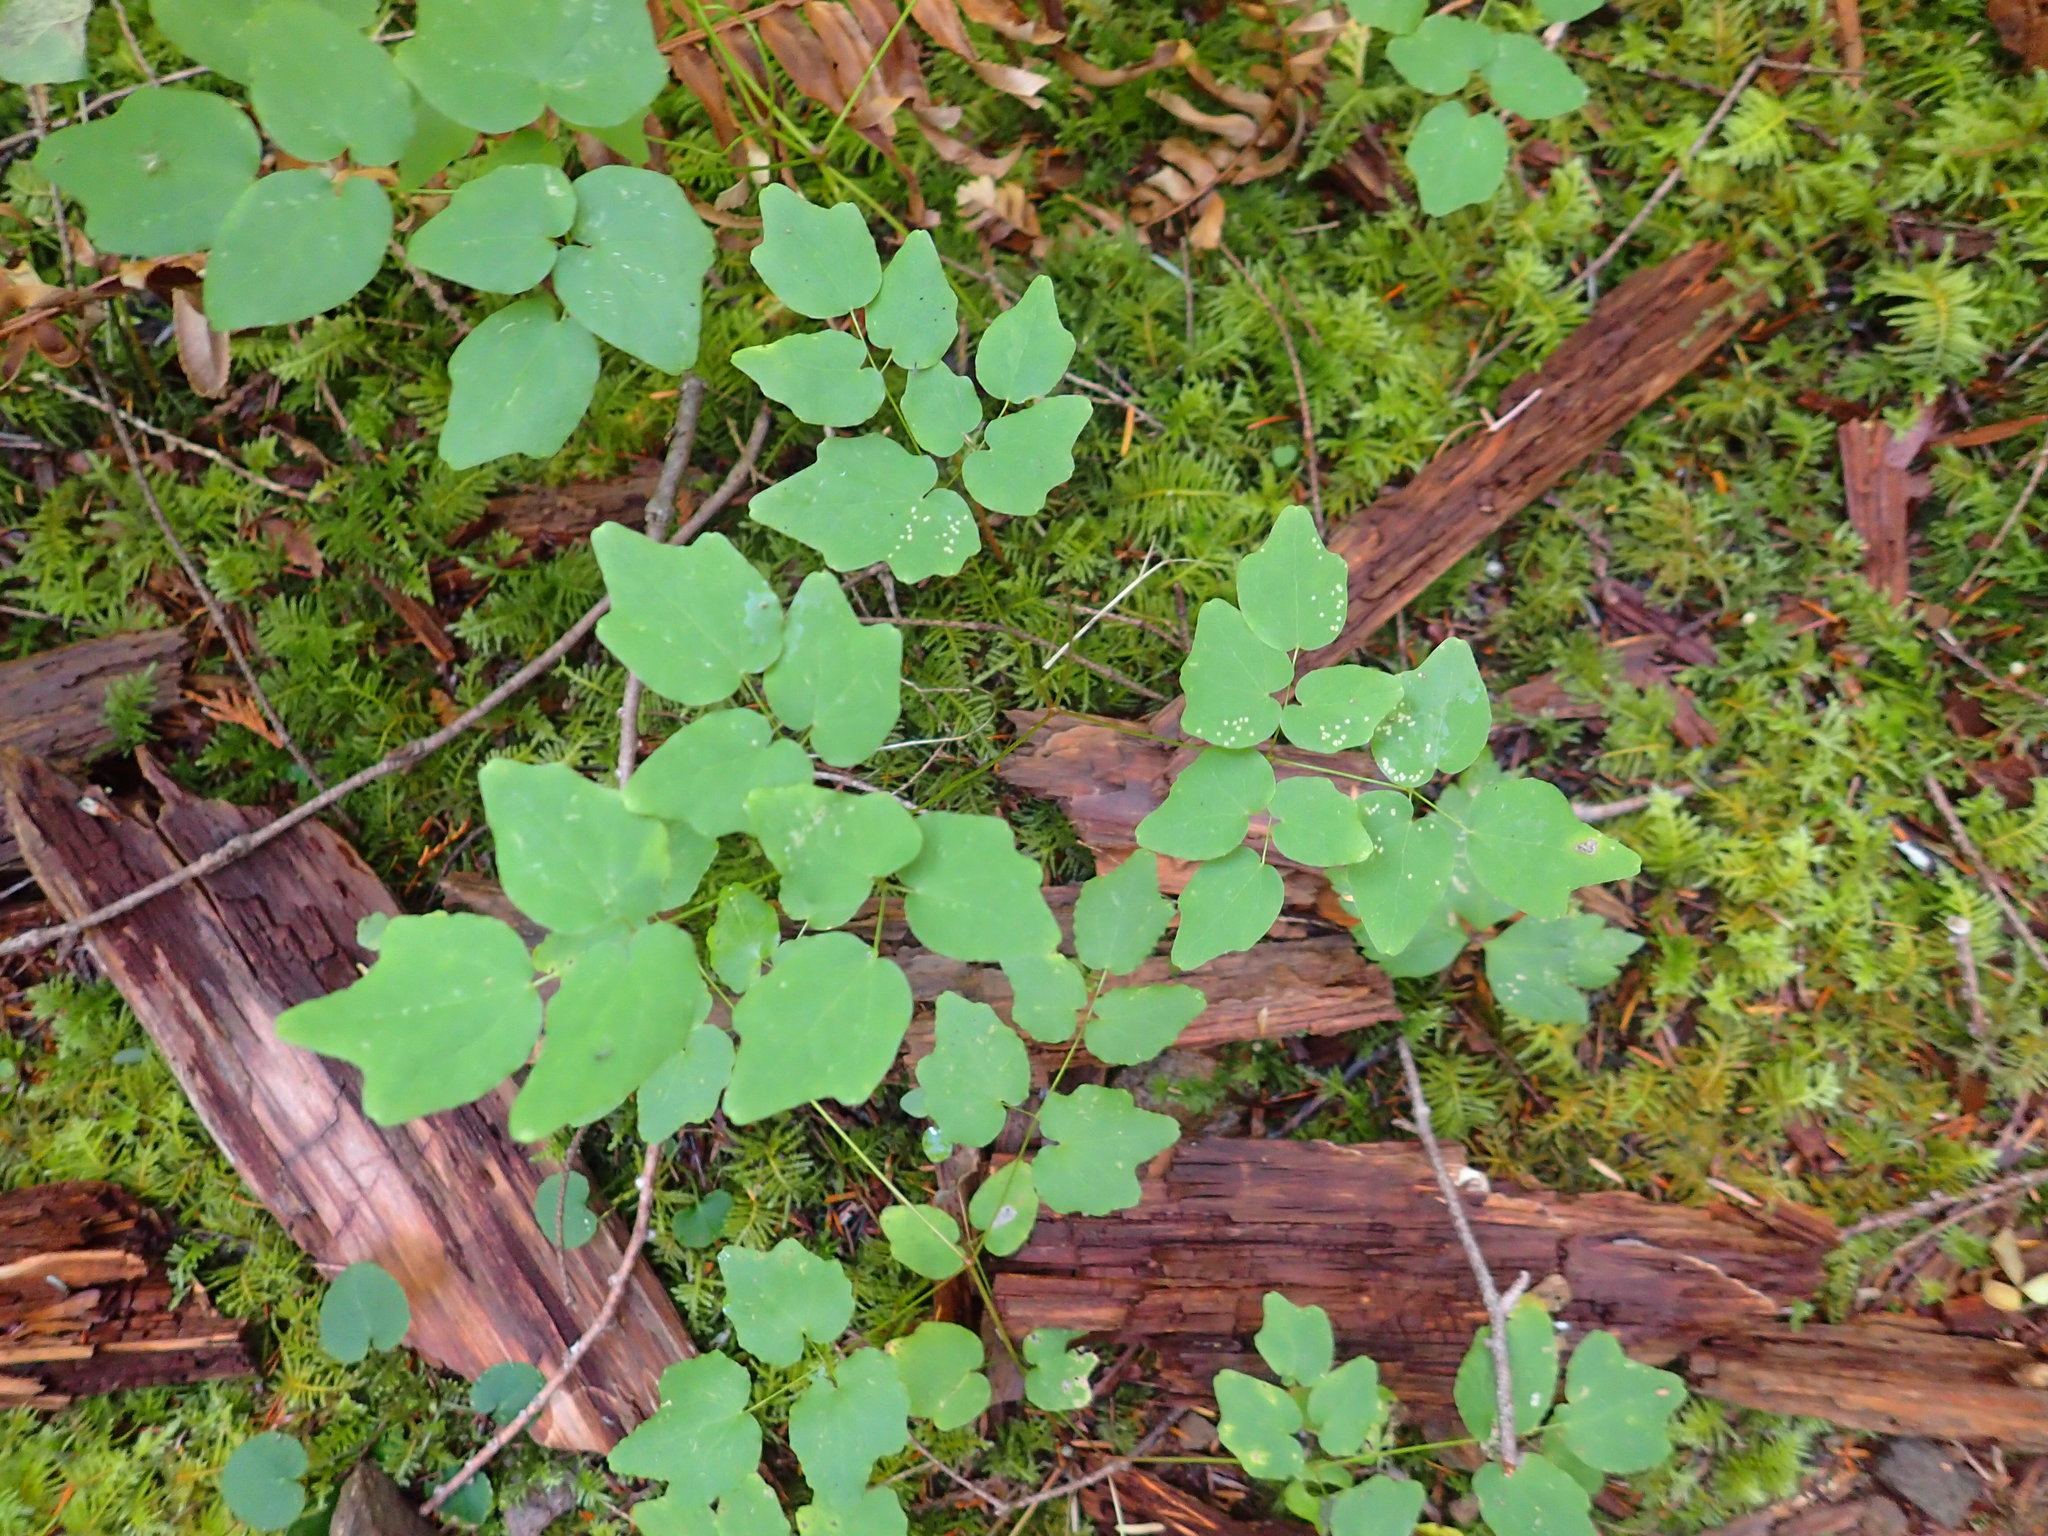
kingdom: Plantae
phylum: Tracheophyta
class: Magnoliopsida
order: Ranunculales
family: Berberidaceae
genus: Vancouveria
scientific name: Vancouveria hexandra
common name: Northern inside-out-flower
